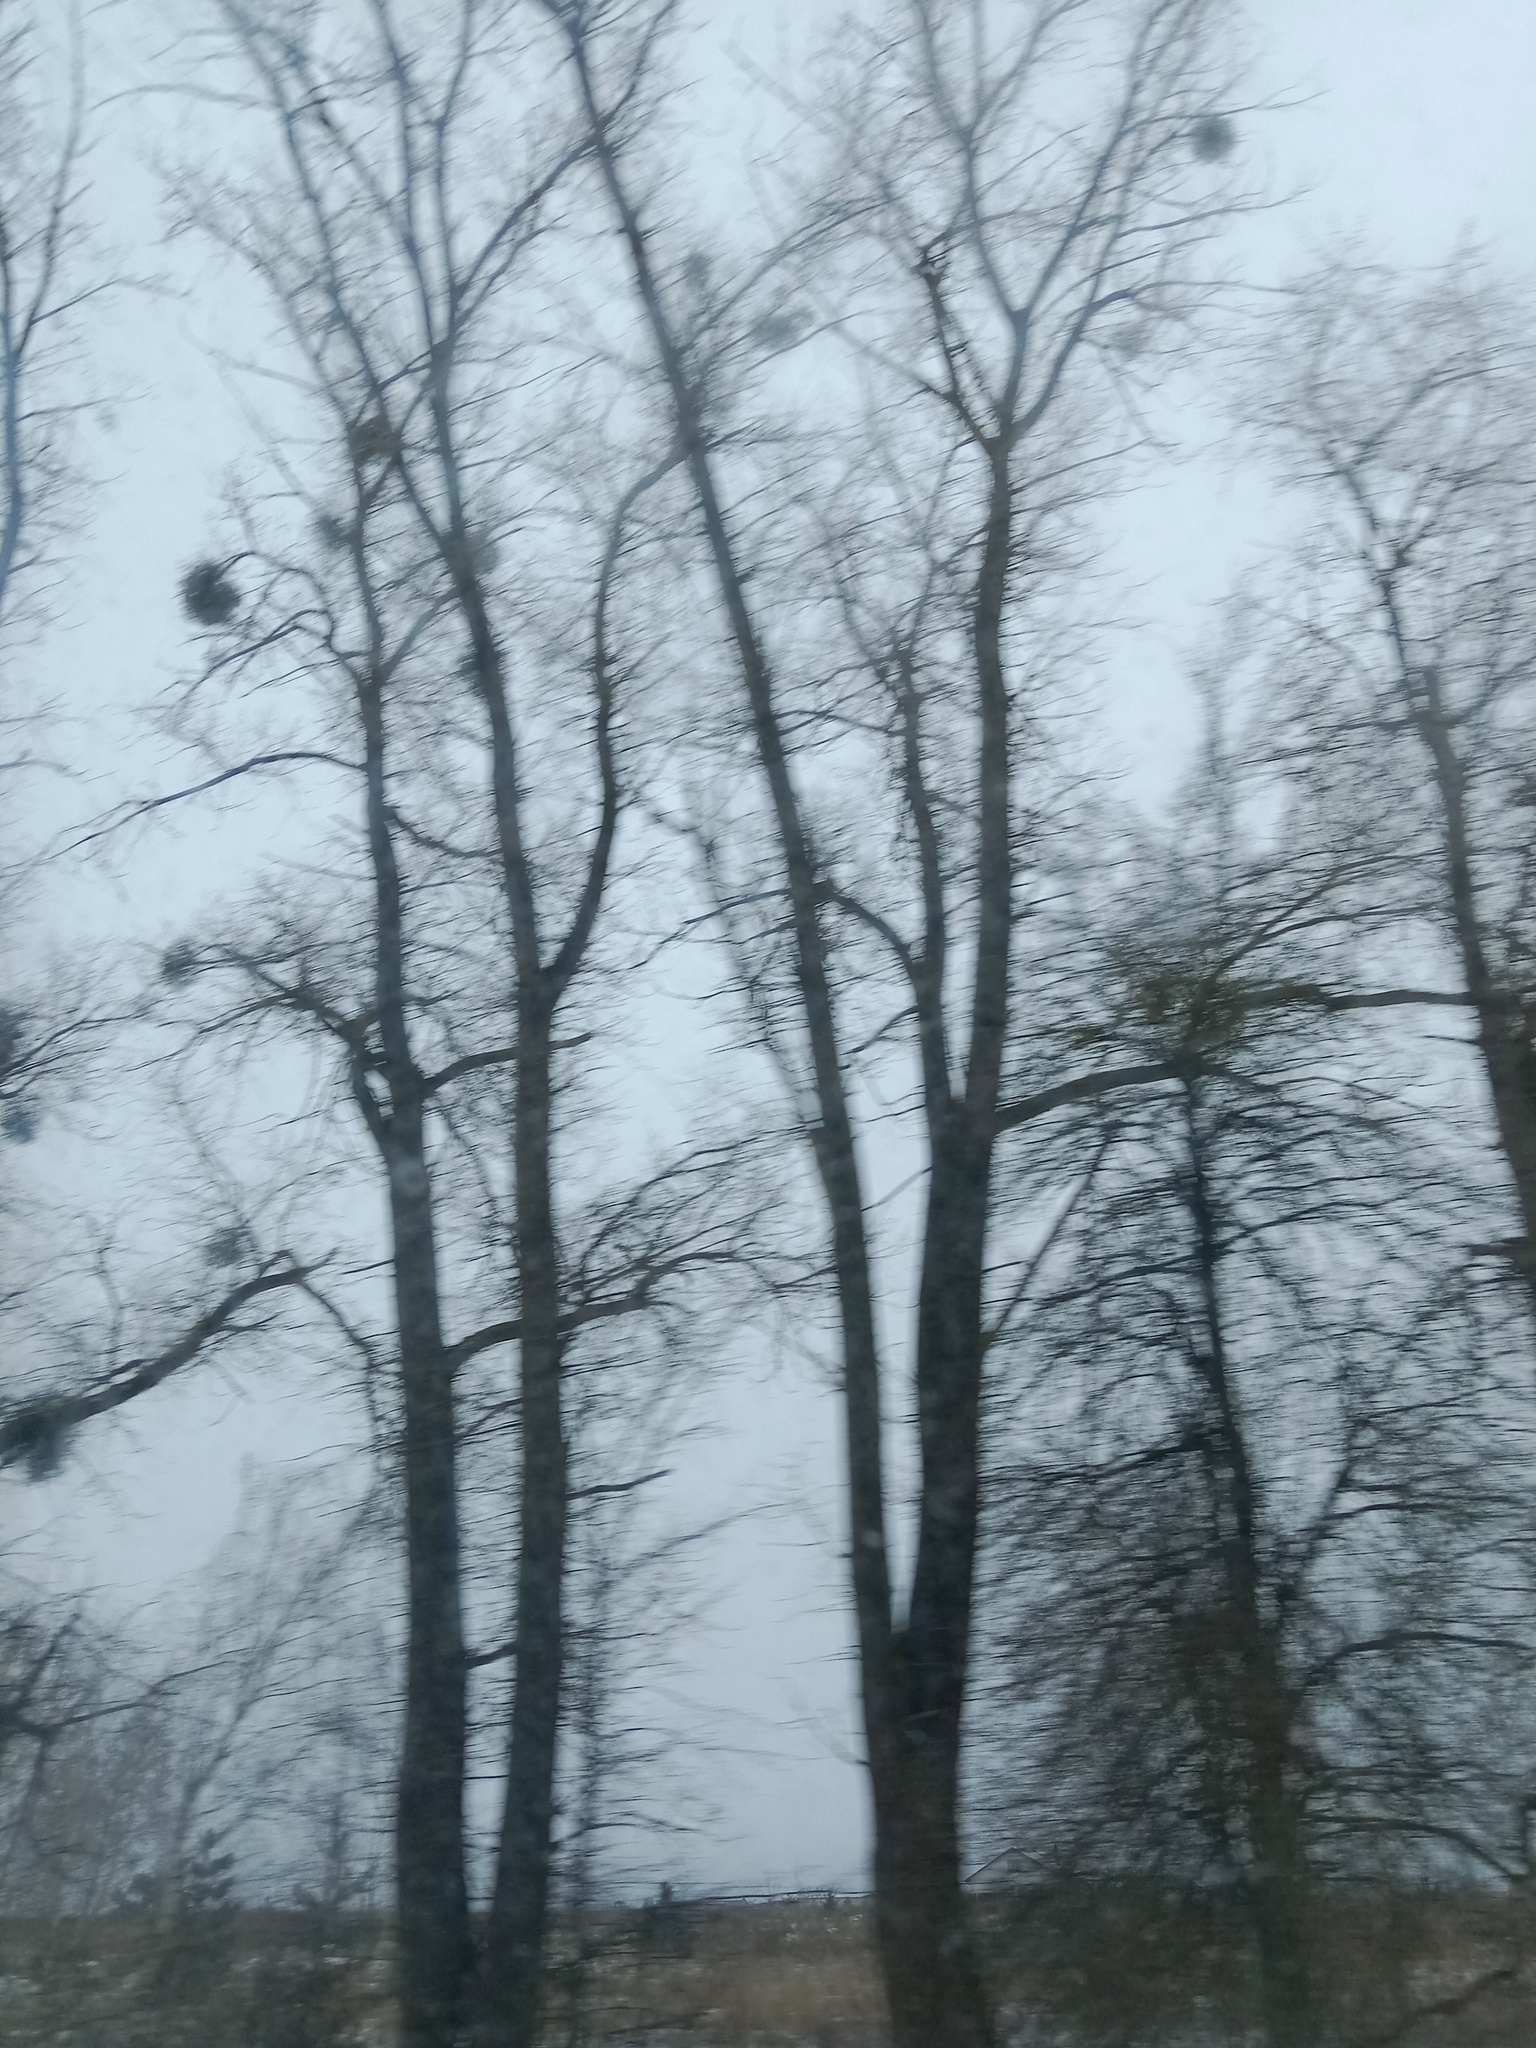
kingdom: Plantae
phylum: Tracheophyta
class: Magnoliopsida
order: Santalales
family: Viscaceae
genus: Viscum
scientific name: Viscum album
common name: Mistletoe
